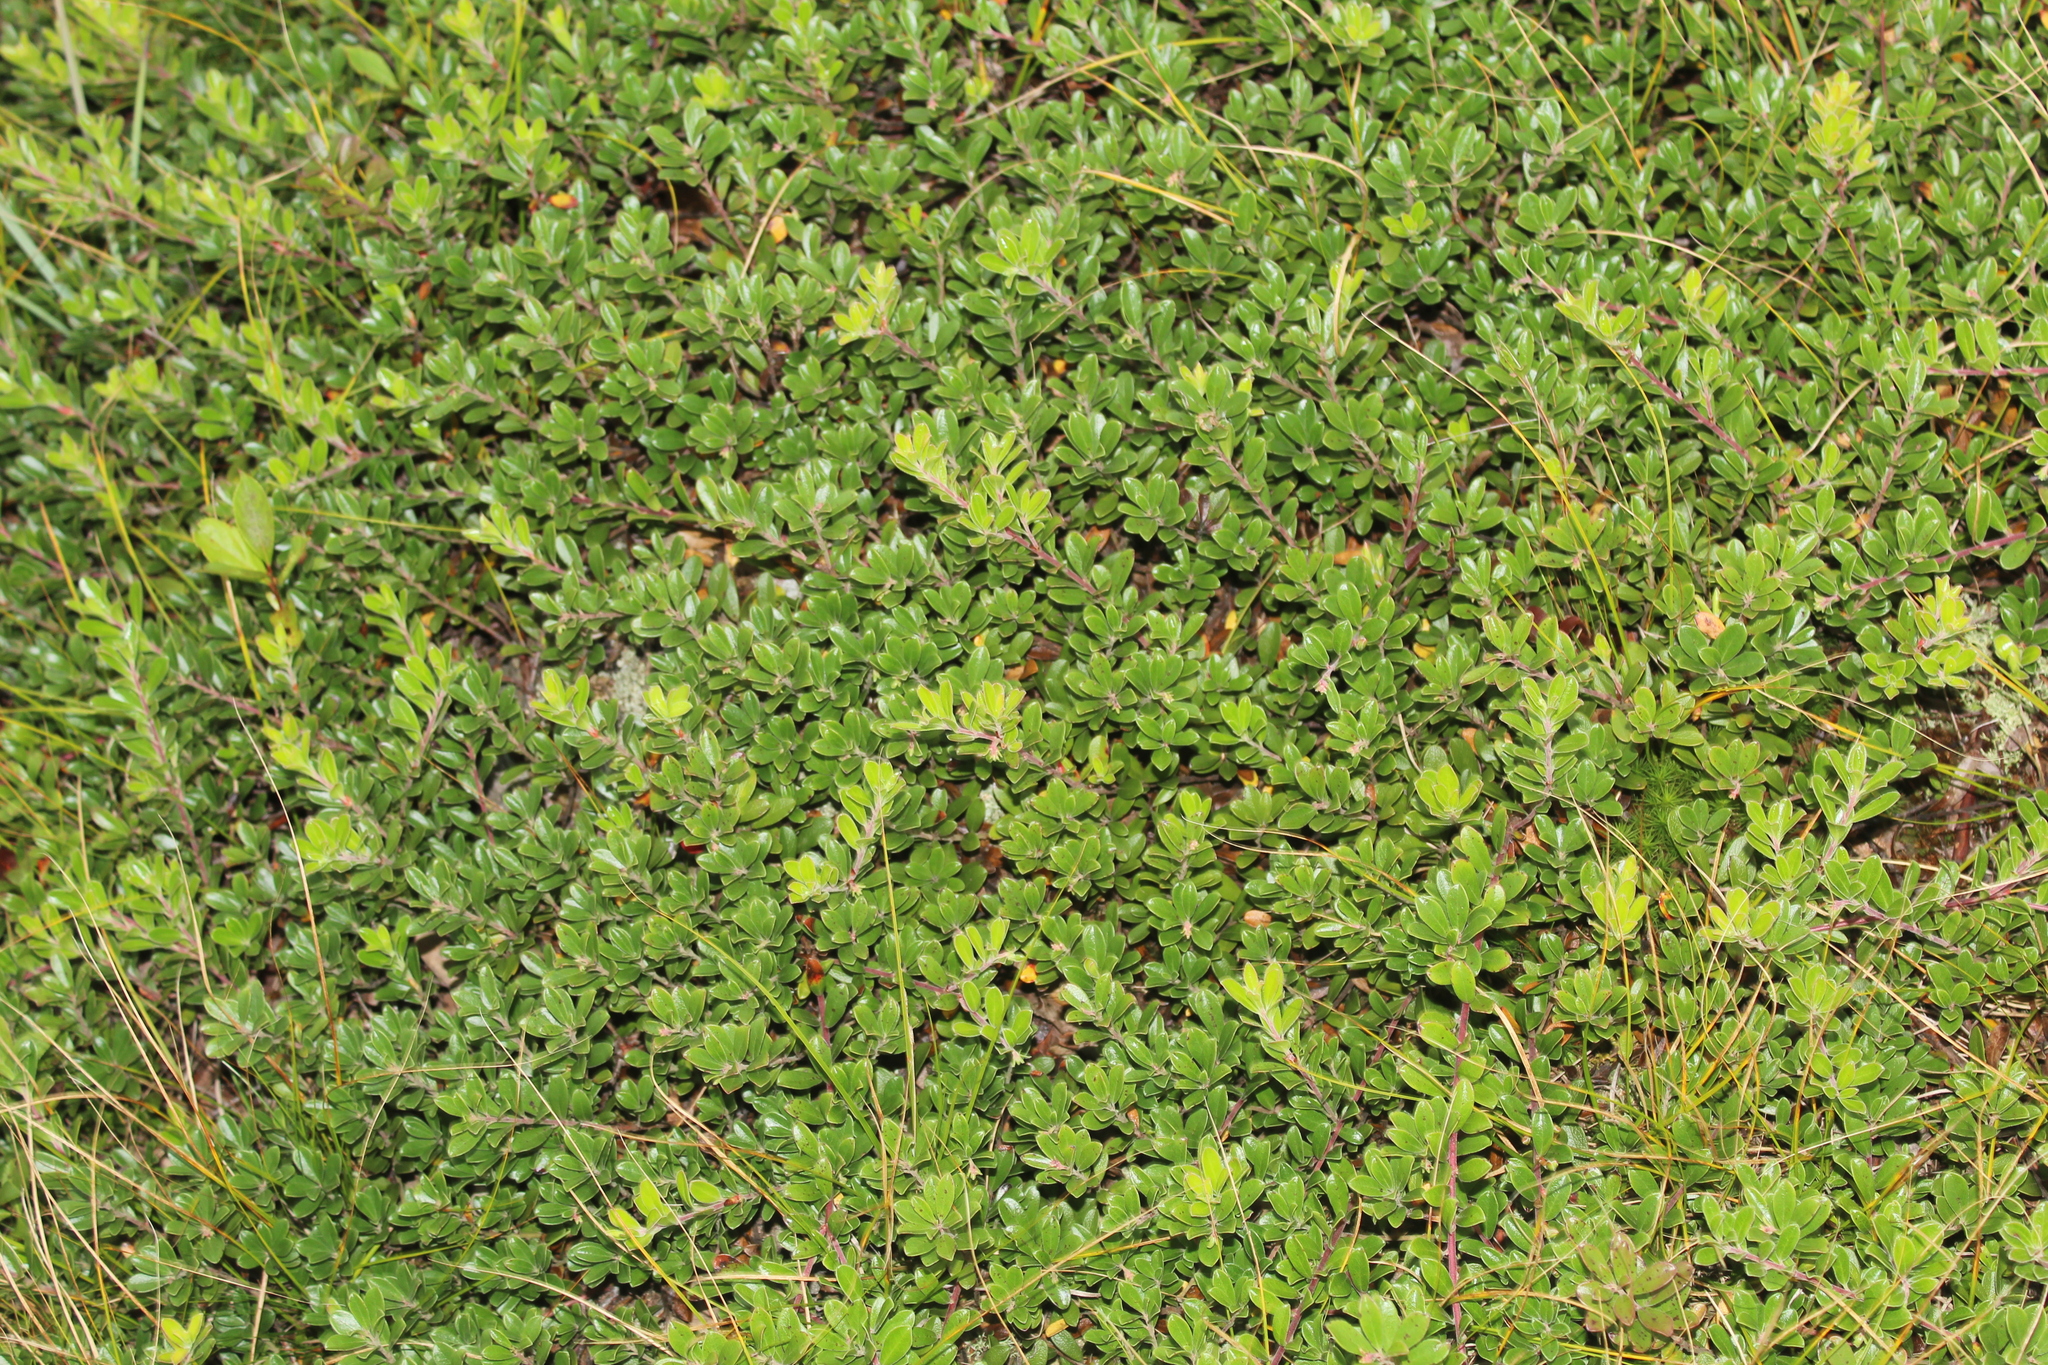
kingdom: Plantae
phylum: Tracheophyta
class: Magnoliopsida
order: Ericales
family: Ericaceae
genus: Arctostaphylos
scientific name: Arctostaphylos uva-ursi
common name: Bearberry
